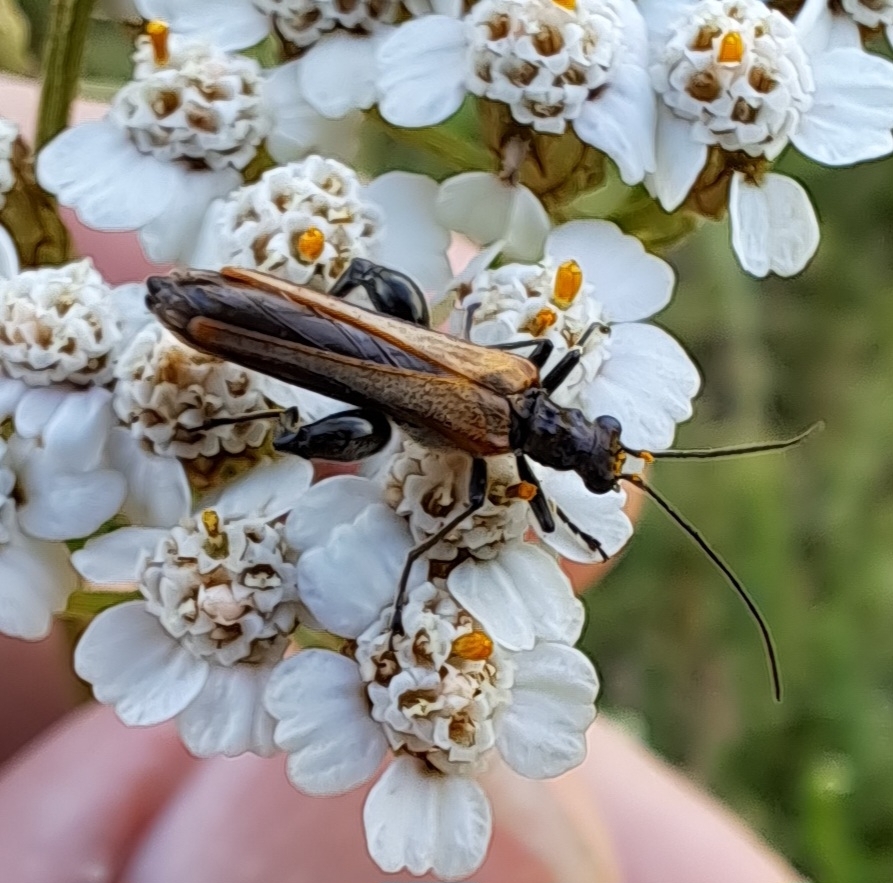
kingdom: Animalia
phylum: Arthropoda
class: Insecta
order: Coleoptera
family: Oedemeridae
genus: Oedemera
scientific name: Oedemera femorata
